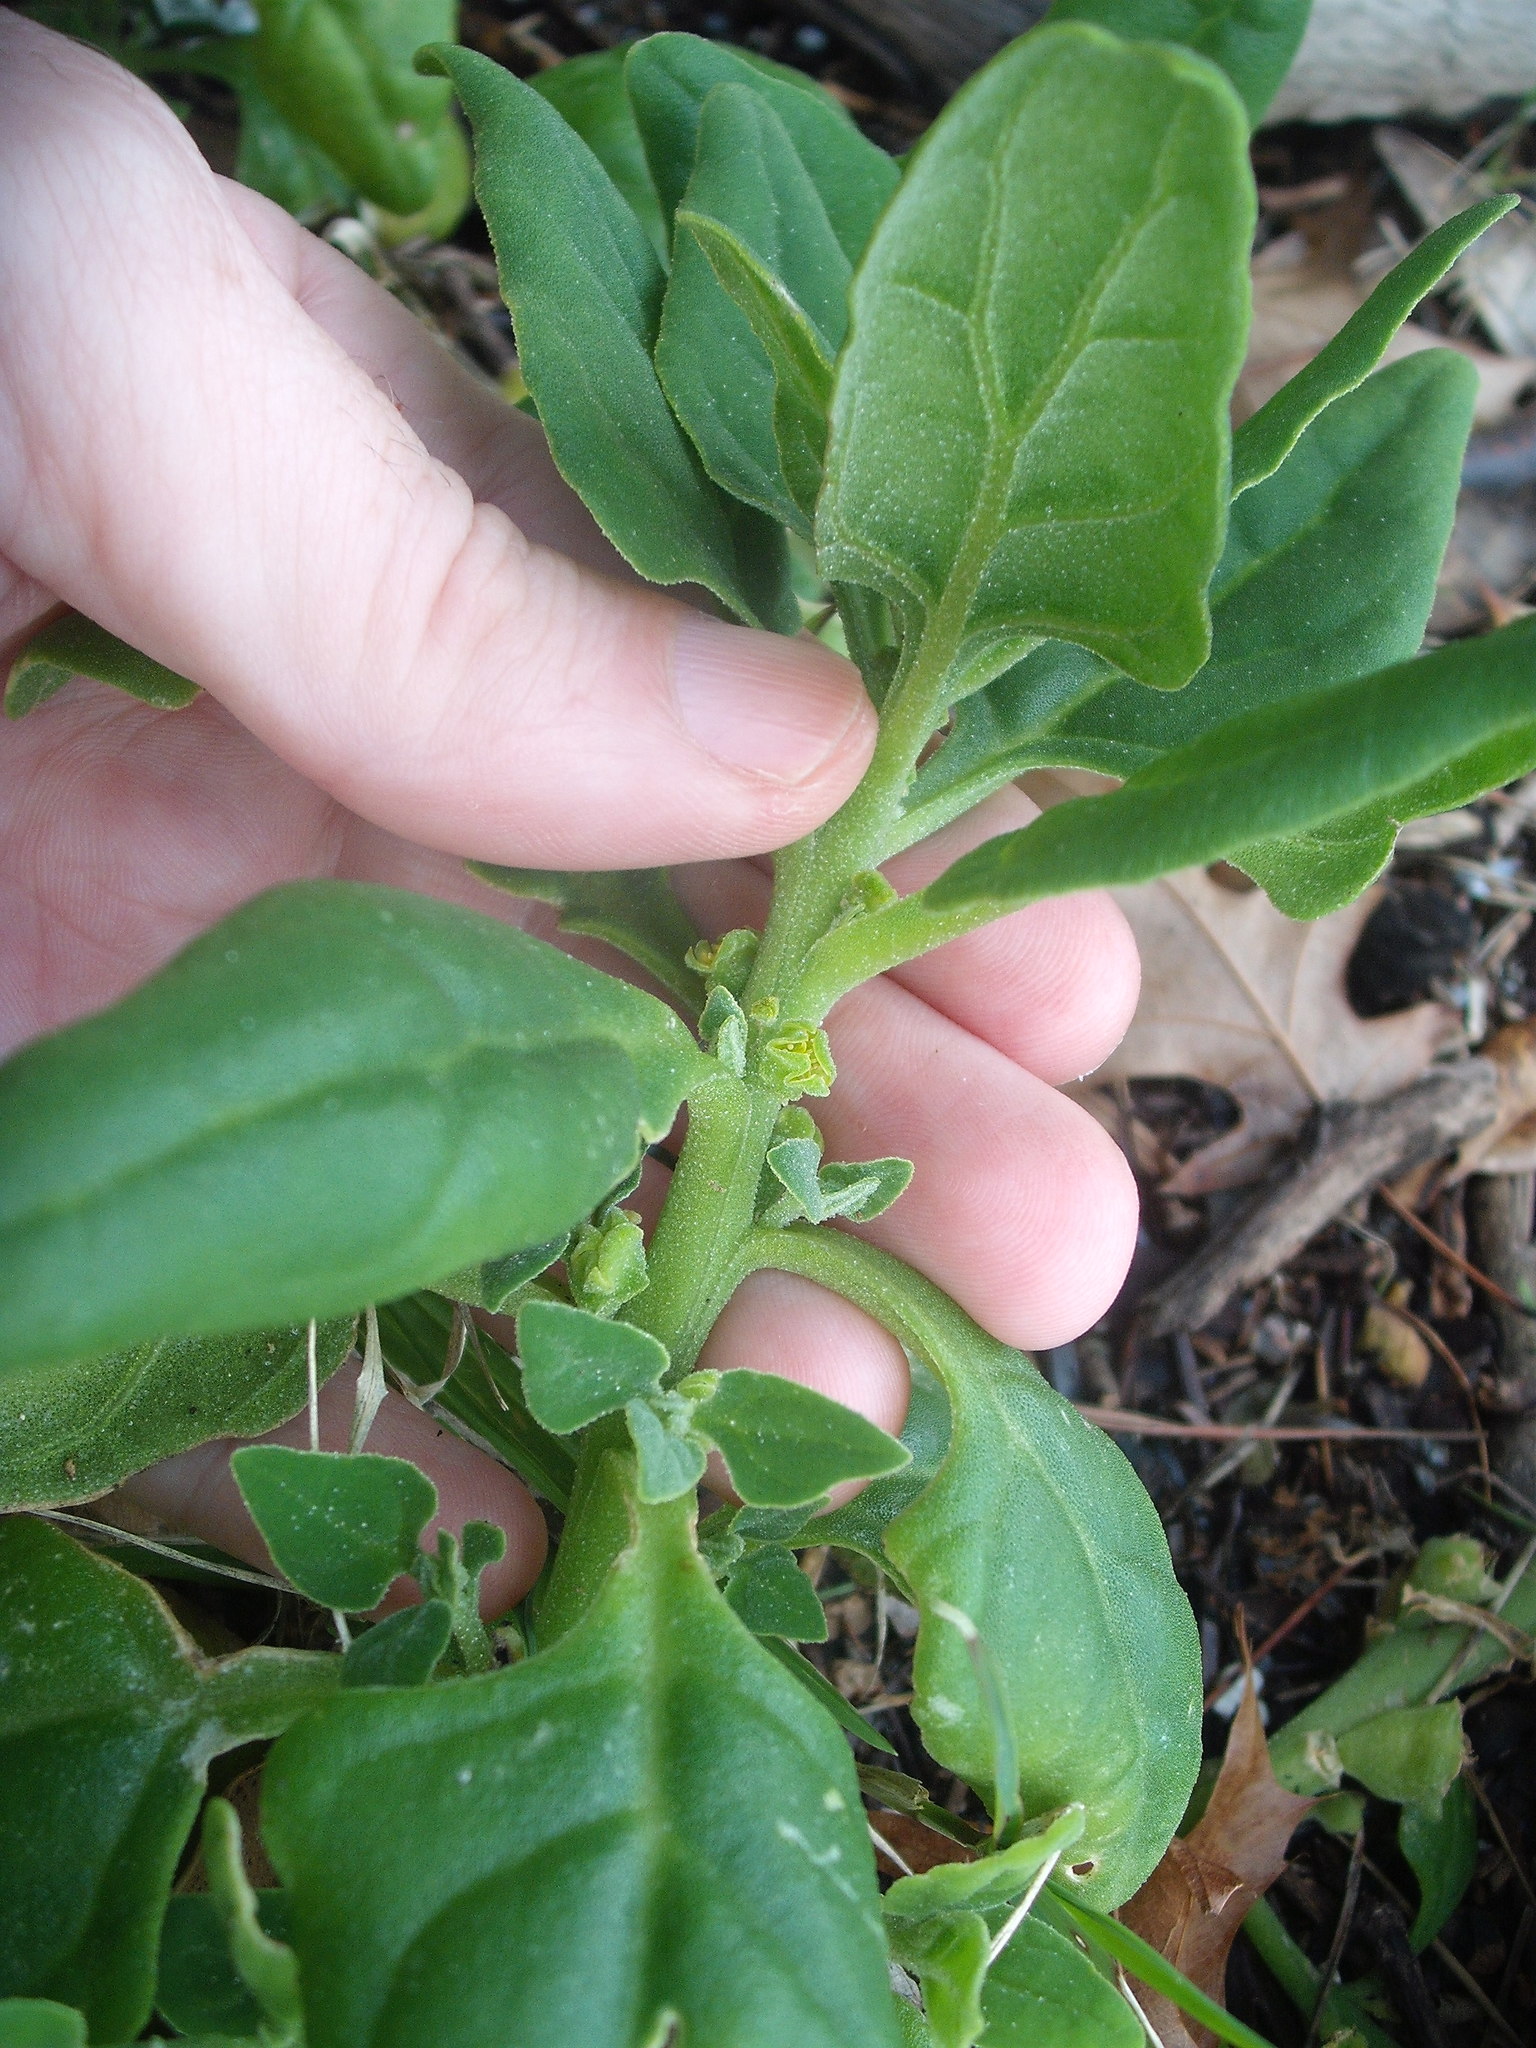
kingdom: Plantae
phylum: Tracheophyta
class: Magnoliopsida
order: Caryophyllales
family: Aizoaceae
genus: Tetragonia
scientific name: Tetragonia tetragonoides
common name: New zealand-spinach
